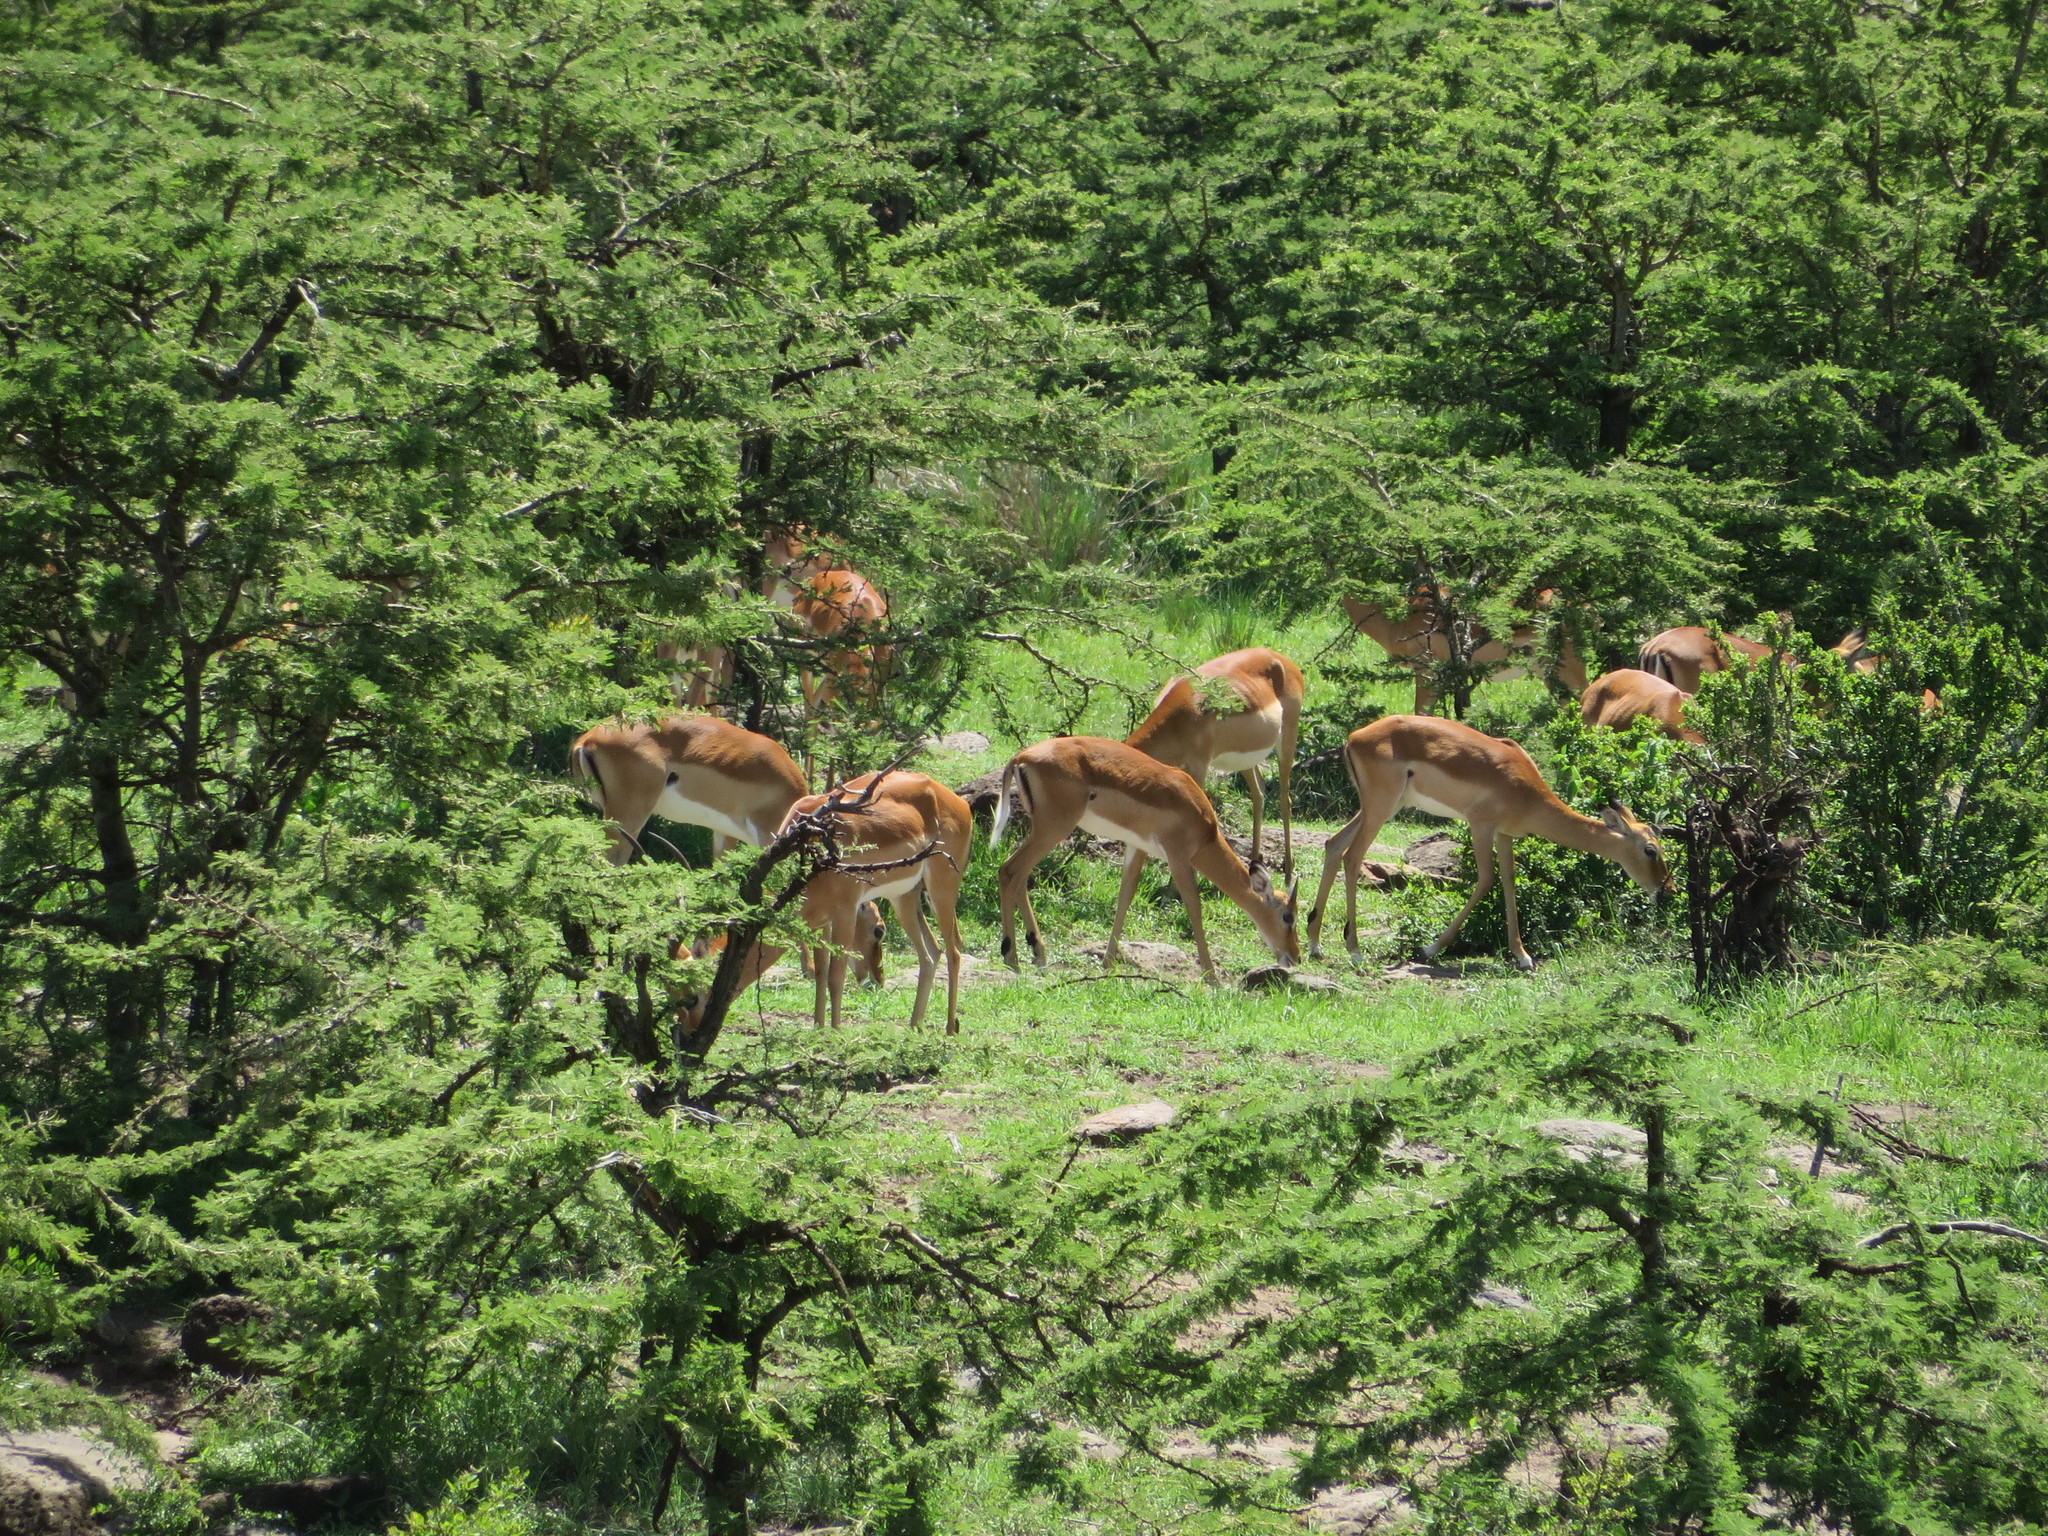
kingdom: Animalia
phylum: Chordata
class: Mammalia
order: Artiodactyla
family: Bovidae
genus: Aepyceros
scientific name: Aepyceros melampus
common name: Impala
